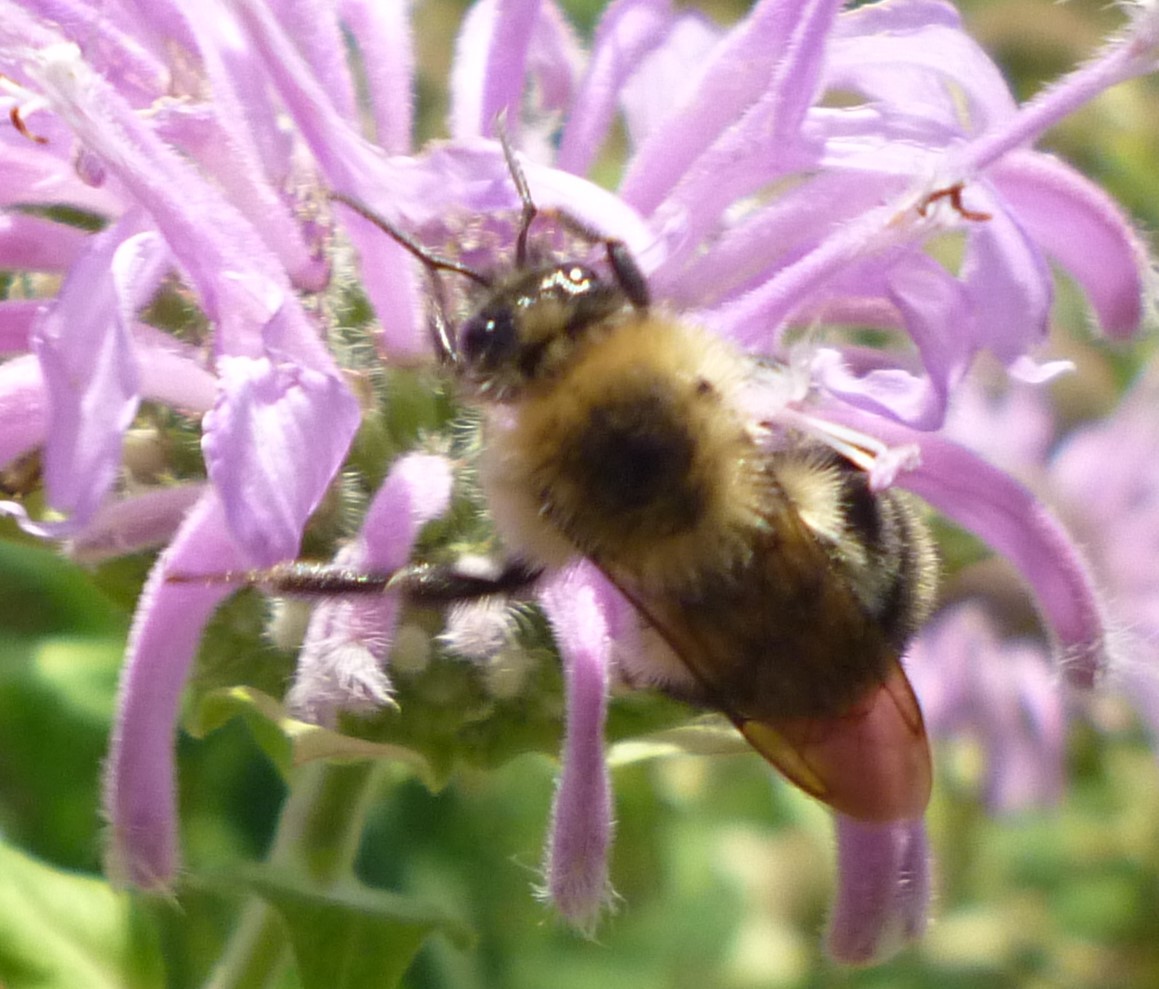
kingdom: Animalia
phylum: Arthropoda
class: Insecta
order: Hymenoptera
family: Apidae
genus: Bombus
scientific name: Bombus bimaculatus
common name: Two-spotted bumble bee
